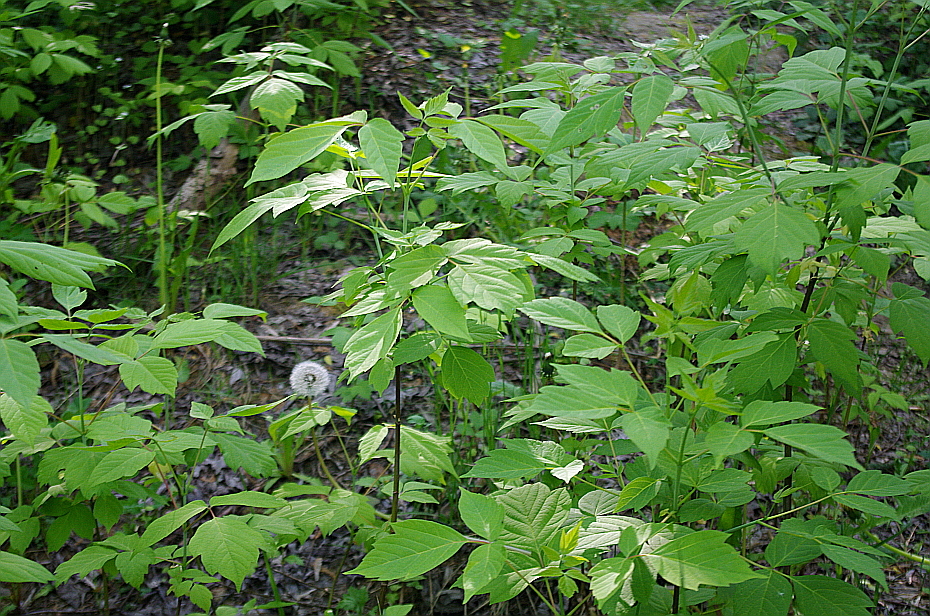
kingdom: Plantae
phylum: Tracheophyta
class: Magnoliopsida
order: Sapindales
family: Sapindaceae
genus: Acer
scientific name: Acer negundo
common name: Ashleaf maple
